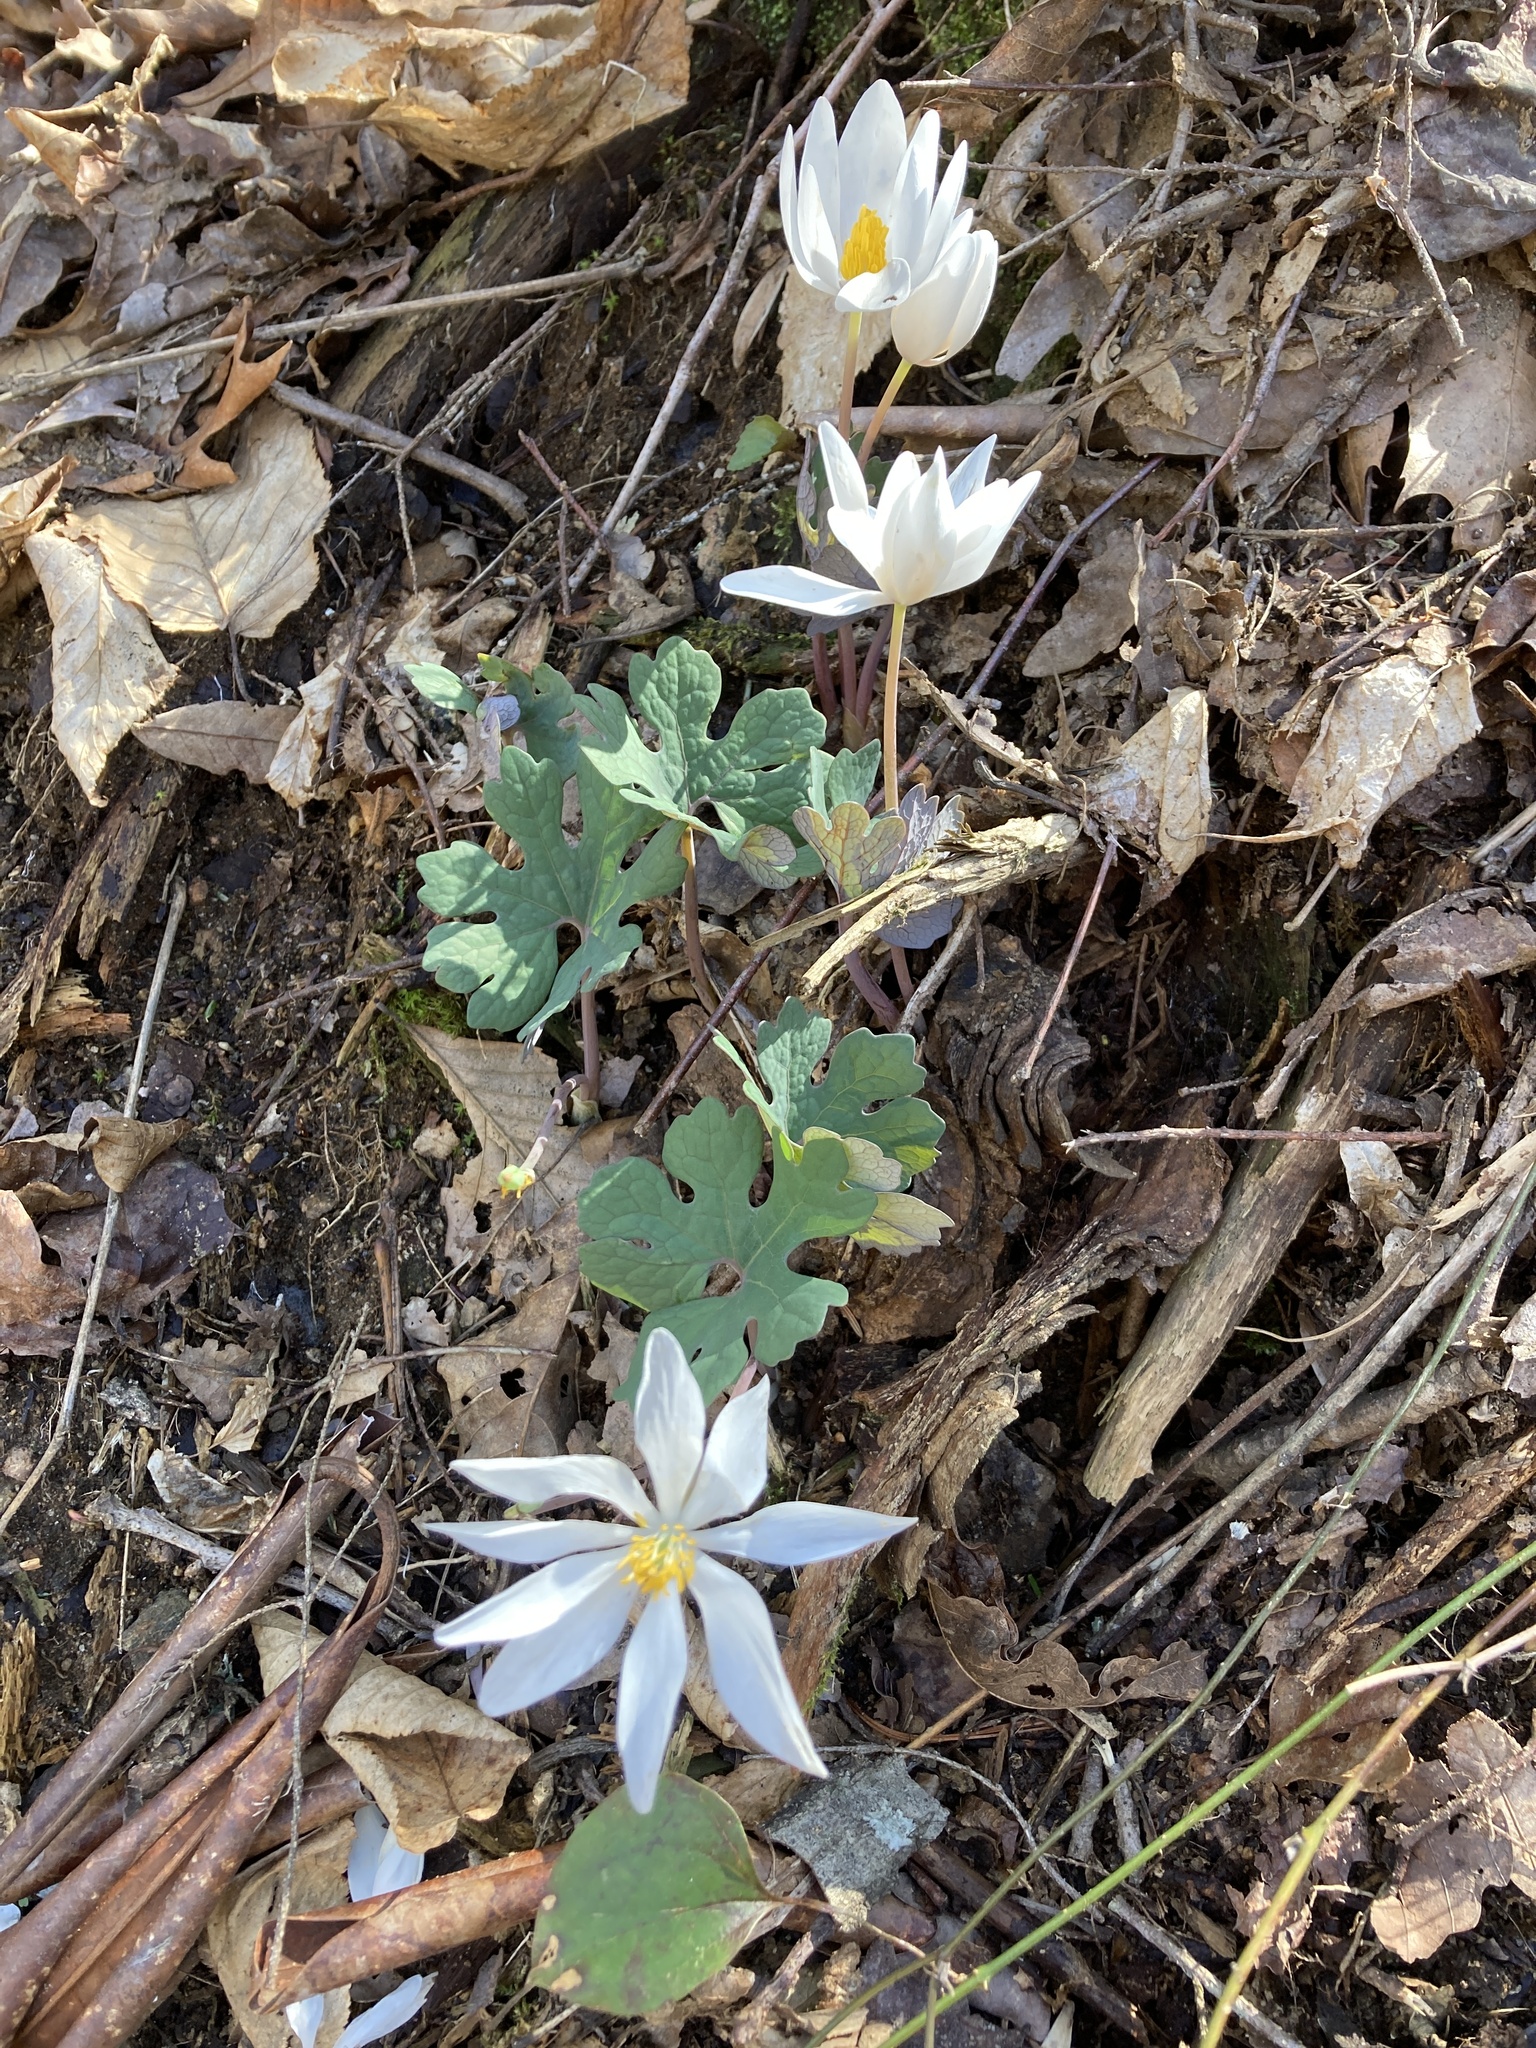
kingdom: Plantae
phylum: Tracheophyta
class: Magnoliopsida
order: Ranunculales
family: Papaveraceae
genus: Sanguinaria
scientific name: Sanguinaria canadensis
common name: Bloodroot
